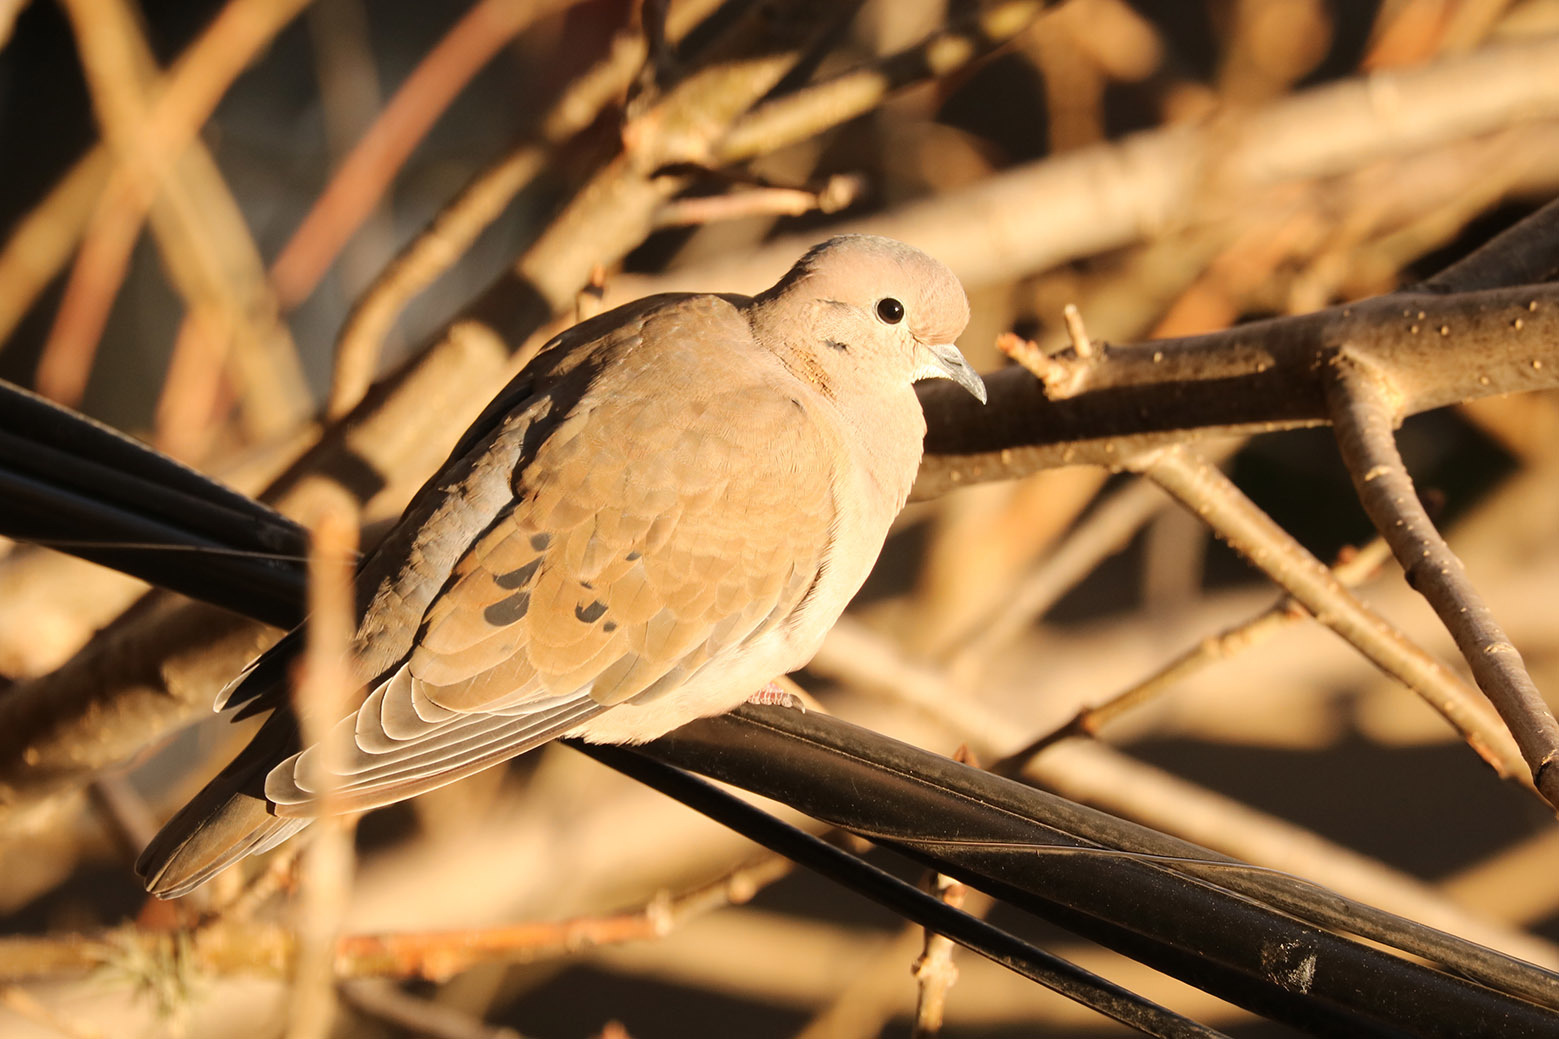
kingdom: Animalia
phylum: Chordata
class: Aves
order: Columbiformes
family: Columbidae
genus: Zenaida
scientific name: Zenaida auriculata
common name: Eared dove
